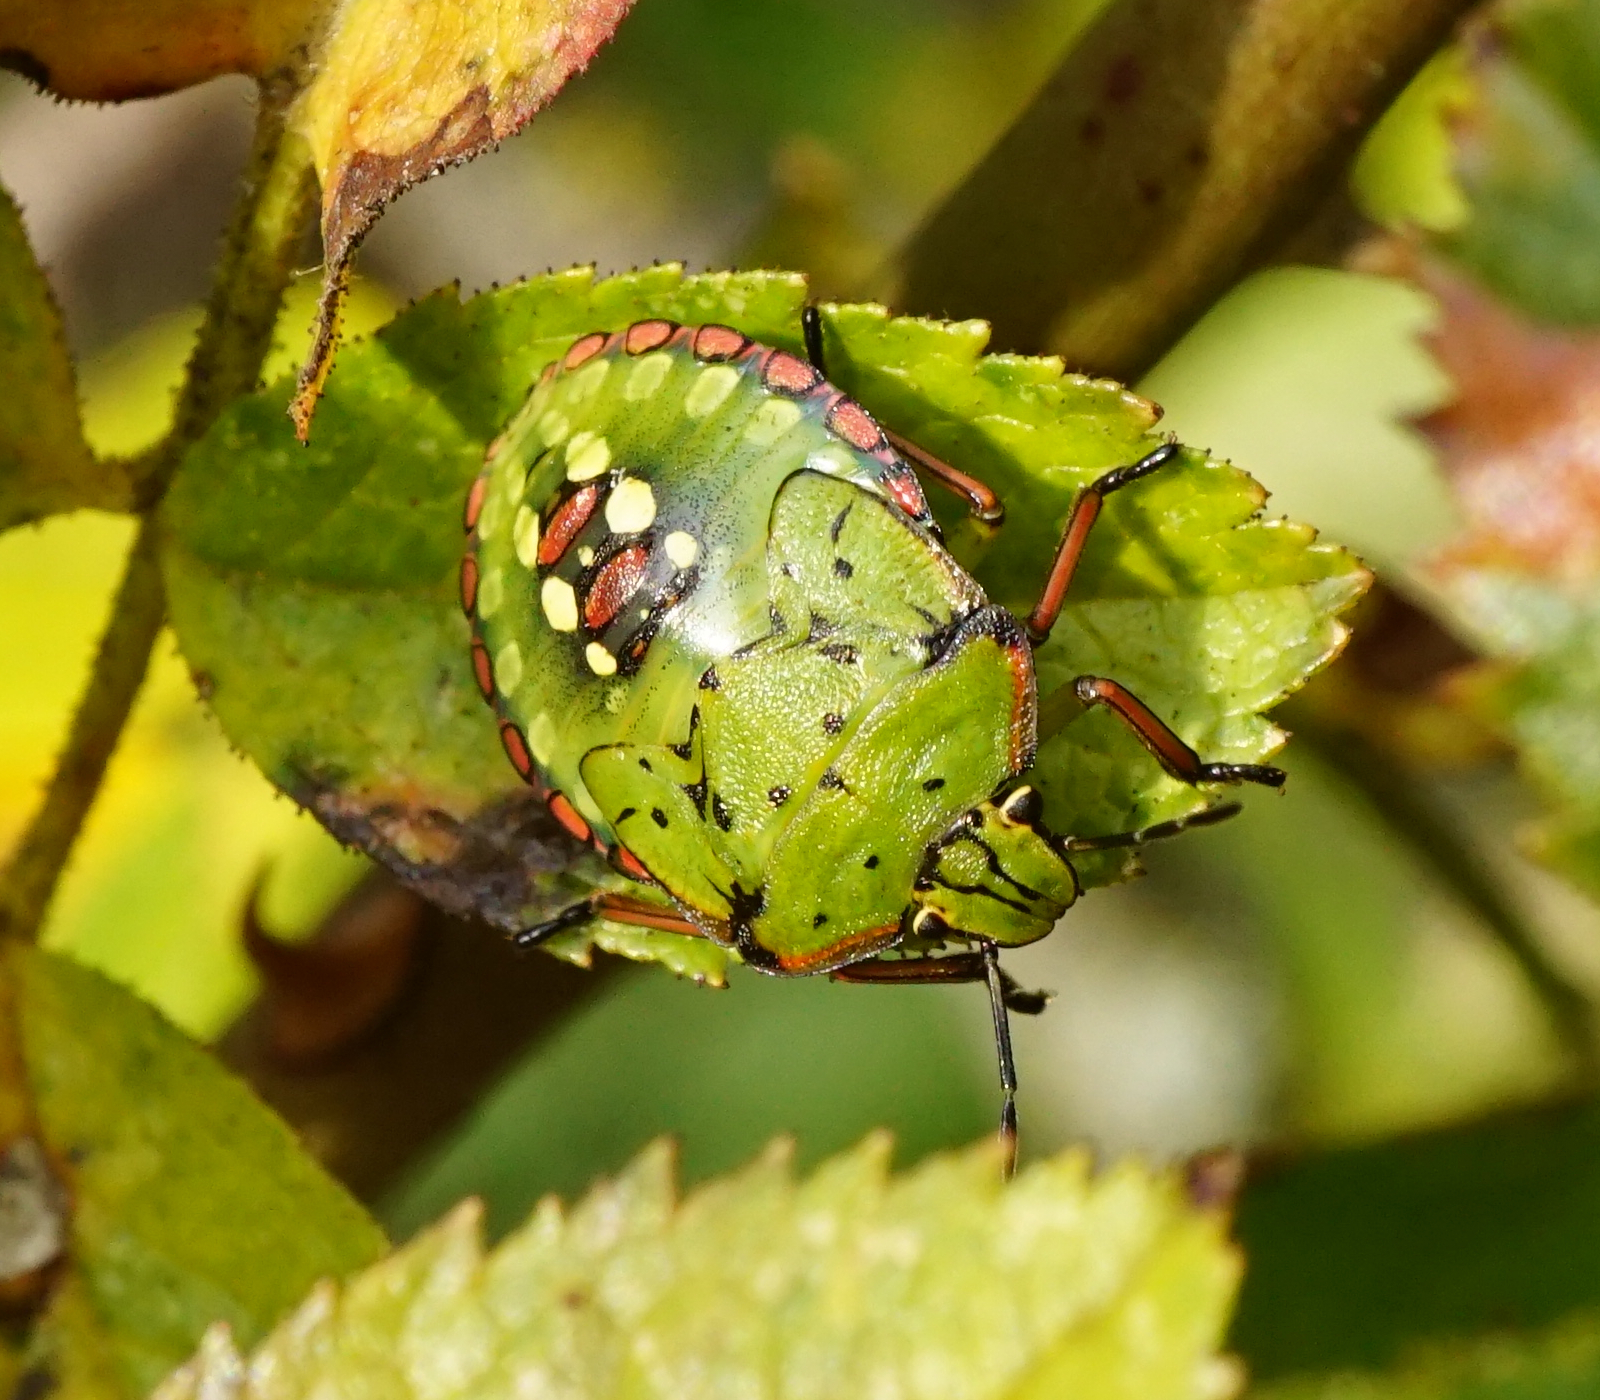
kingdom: Animalia
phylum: Arthropoda
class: Insecta
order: Hemiptera
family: Pentatomidae
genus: Nezara
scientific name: Nezara viridula
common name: Southern green stink bug
